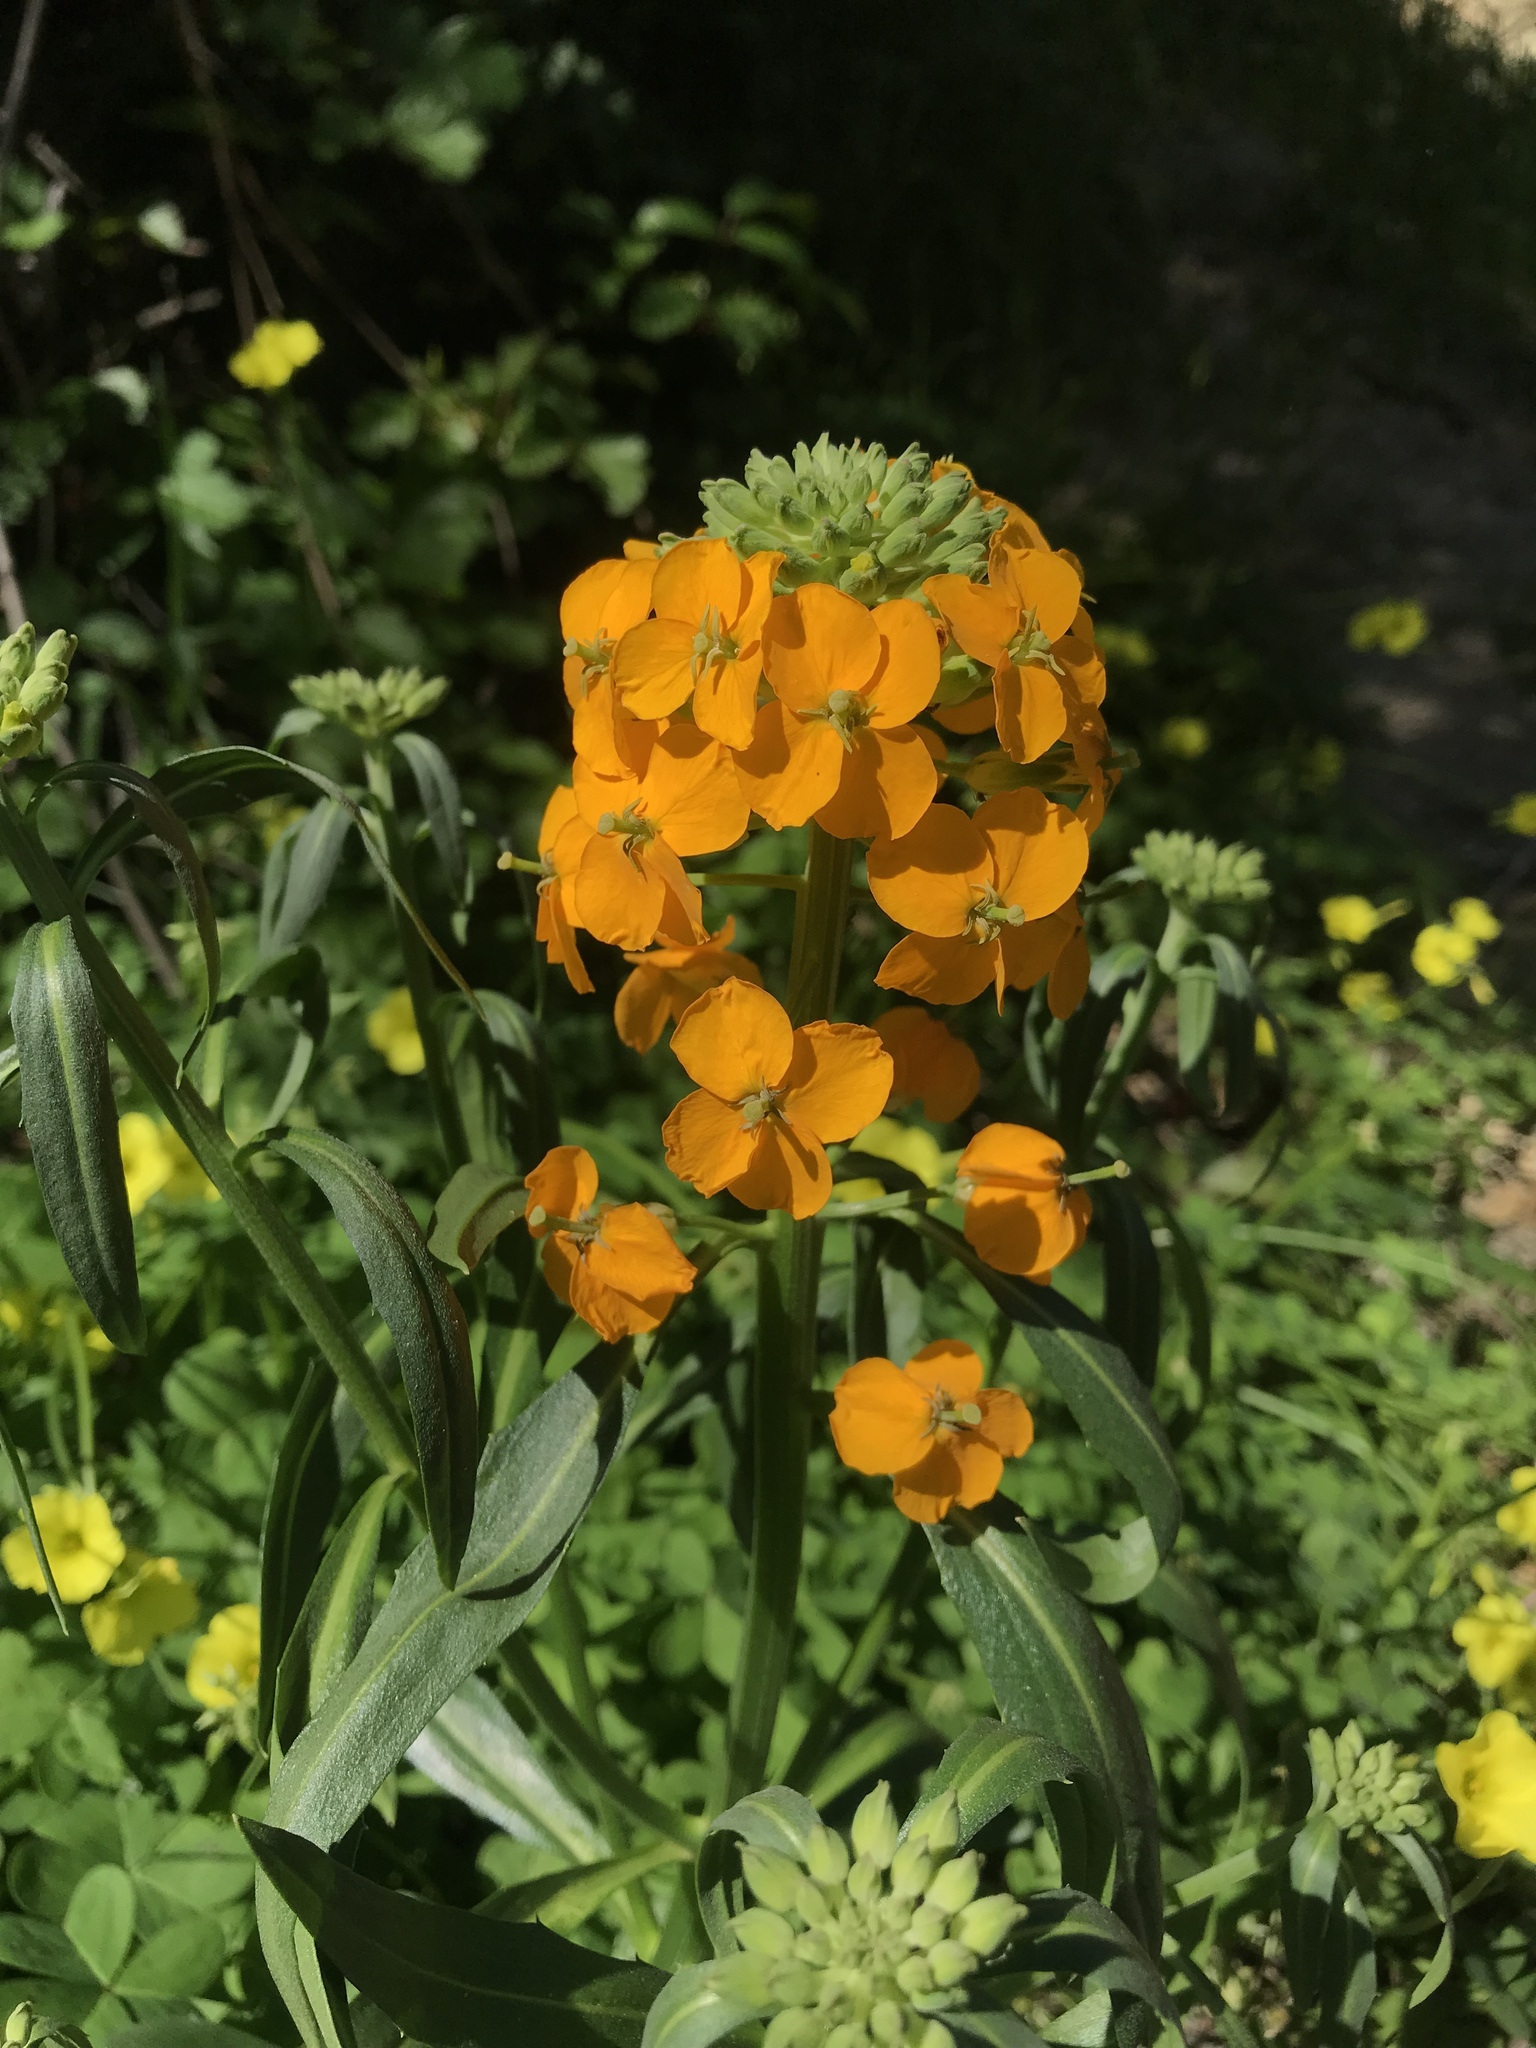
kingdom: Plantae
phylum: Tracheophyta
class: Magnoliopsida
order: Brassicales
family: Brassicaceae
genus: Erysimum
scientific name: Erysimum capitatum
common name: Western wallflower
